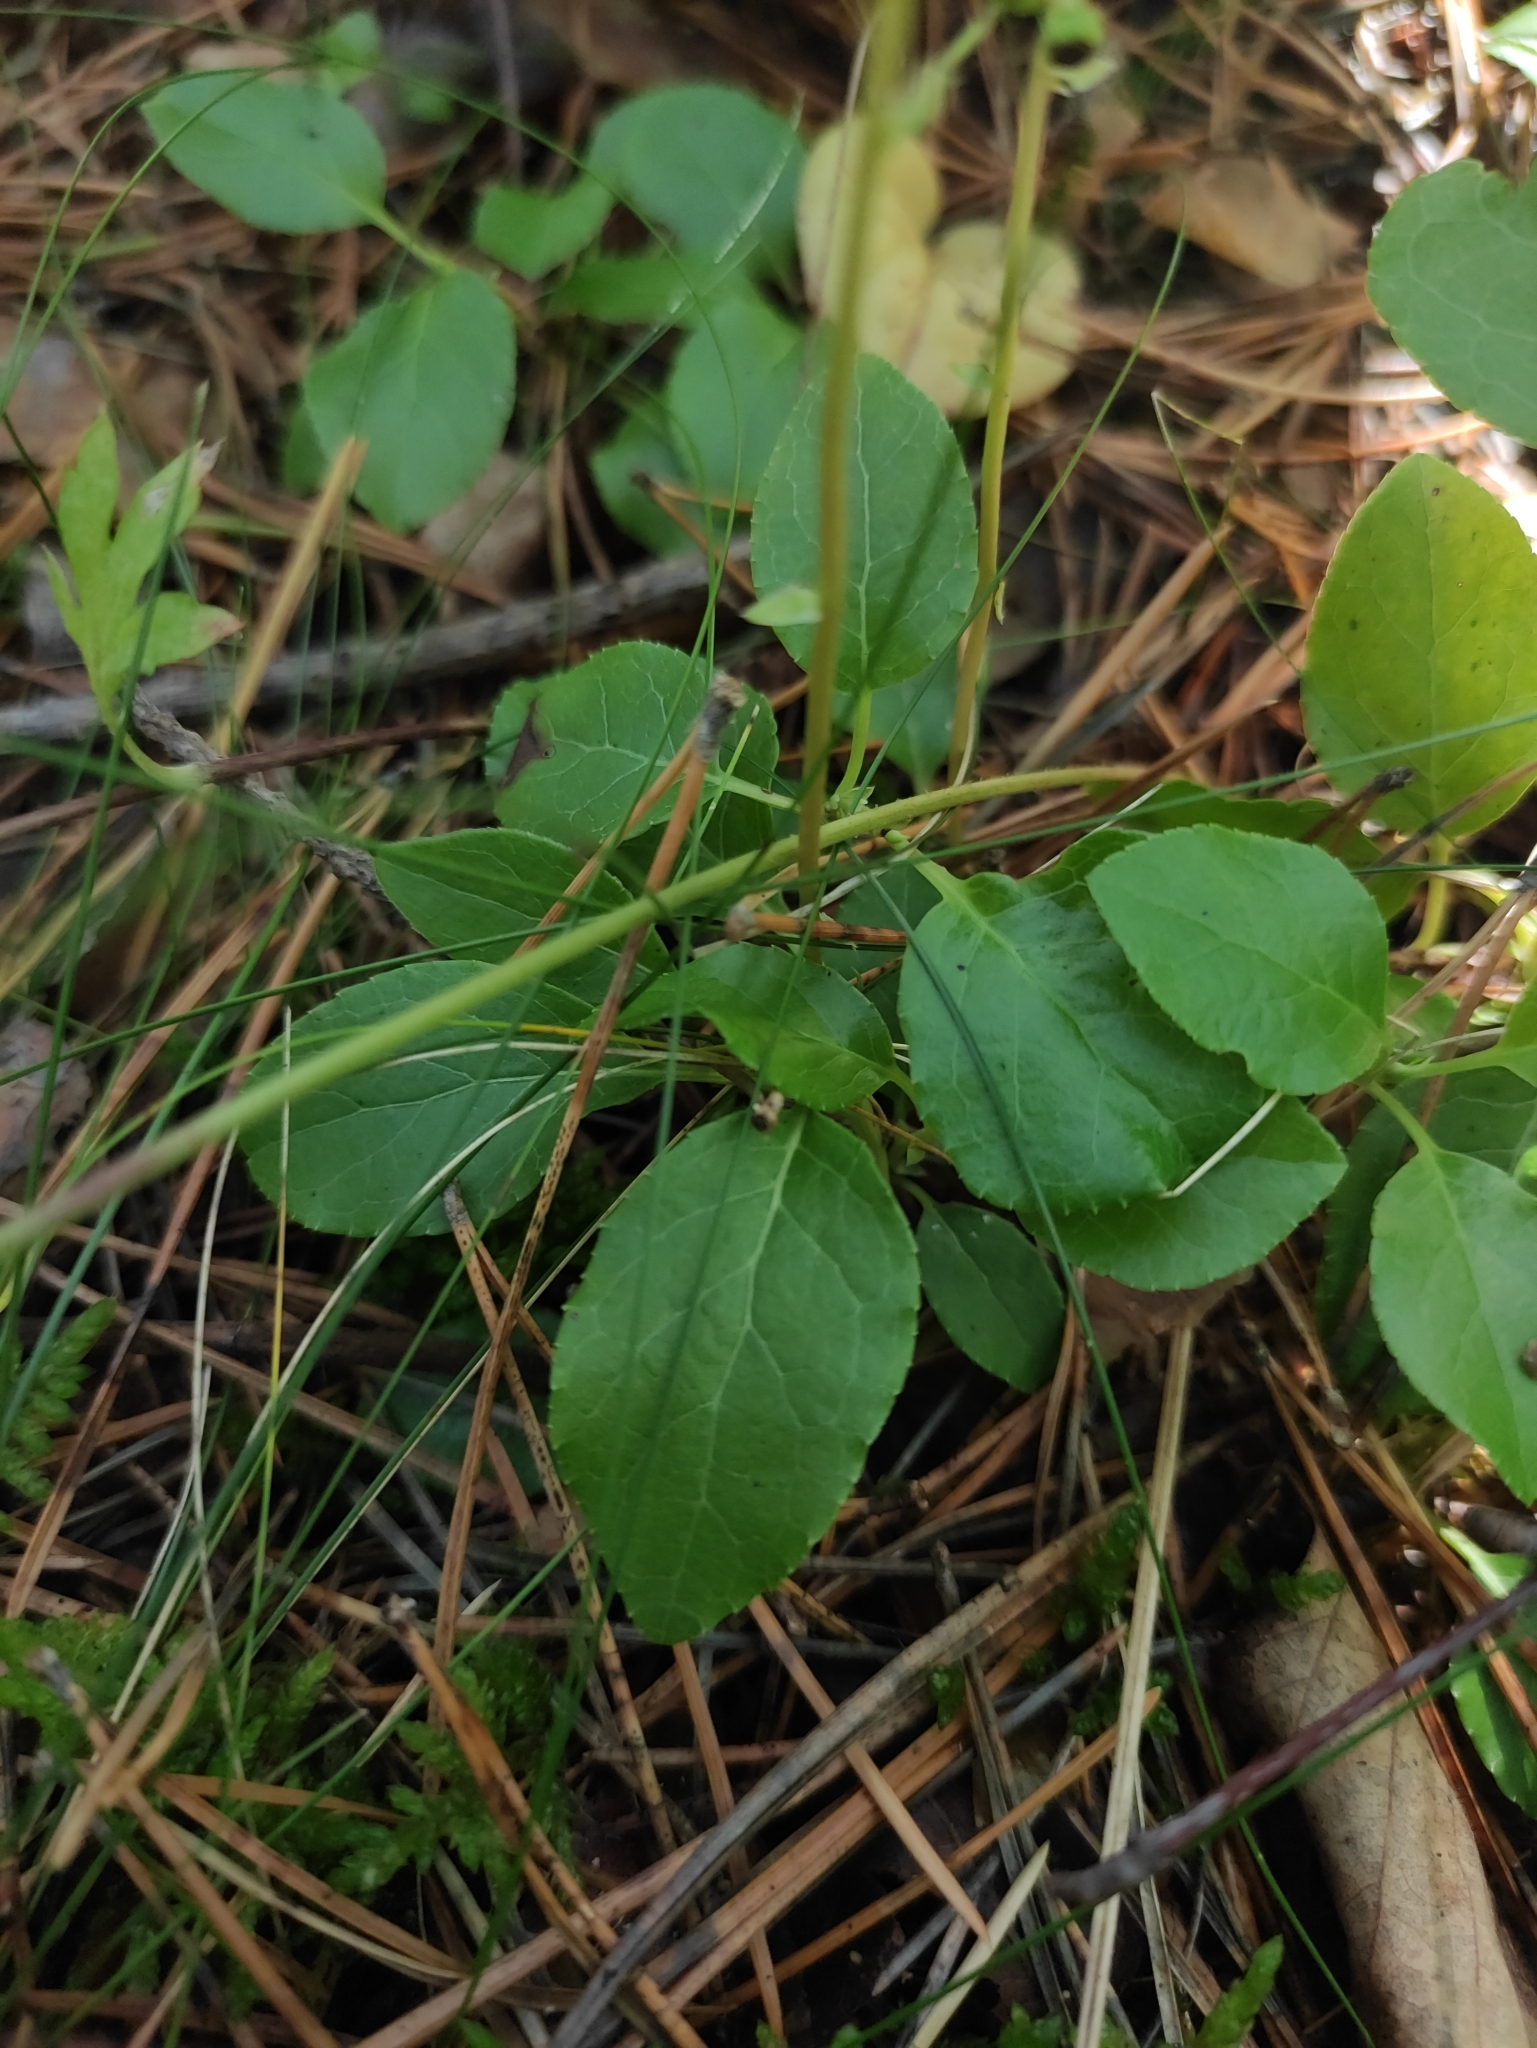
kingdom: Plantae
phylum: Tracheophyta
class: Magnoliopsida
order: Ericales
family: Ericaceae
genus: Orthilia
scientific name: Orthilia secunda
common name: One-sided orthilia
